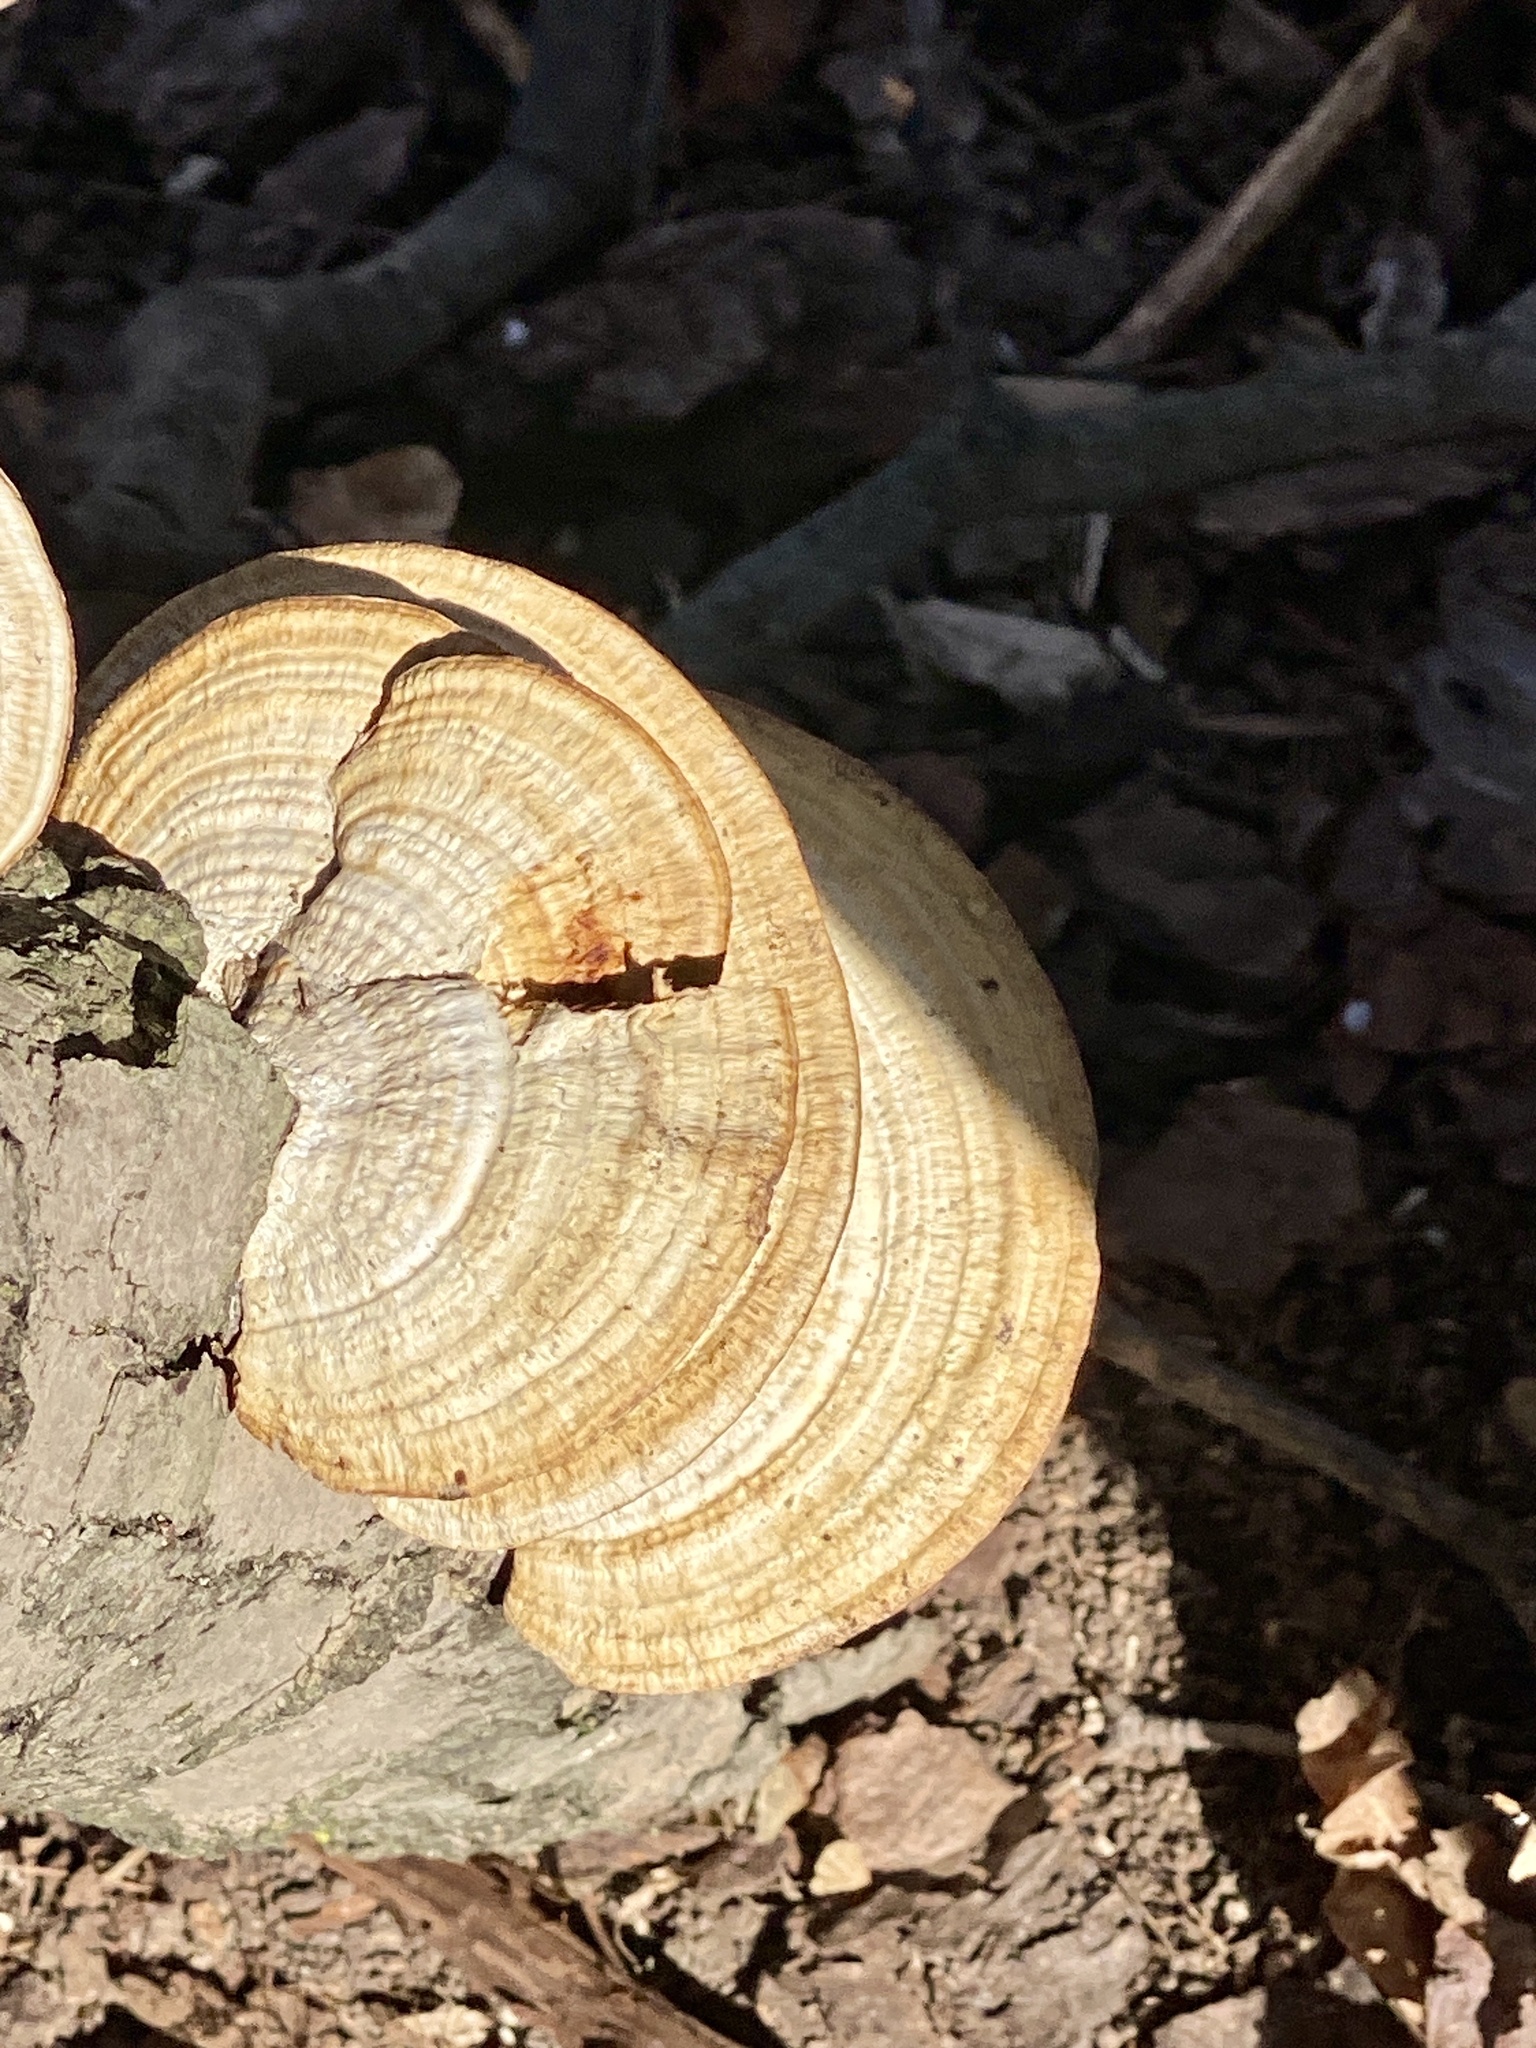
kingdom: Fungi
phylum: Basidiomycota
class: Agaricomycetes
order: Polyporales
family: Polyporaceae
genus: Daedaleopsis
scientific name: Daedaleopsis confragosa
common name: Blushing bracket
